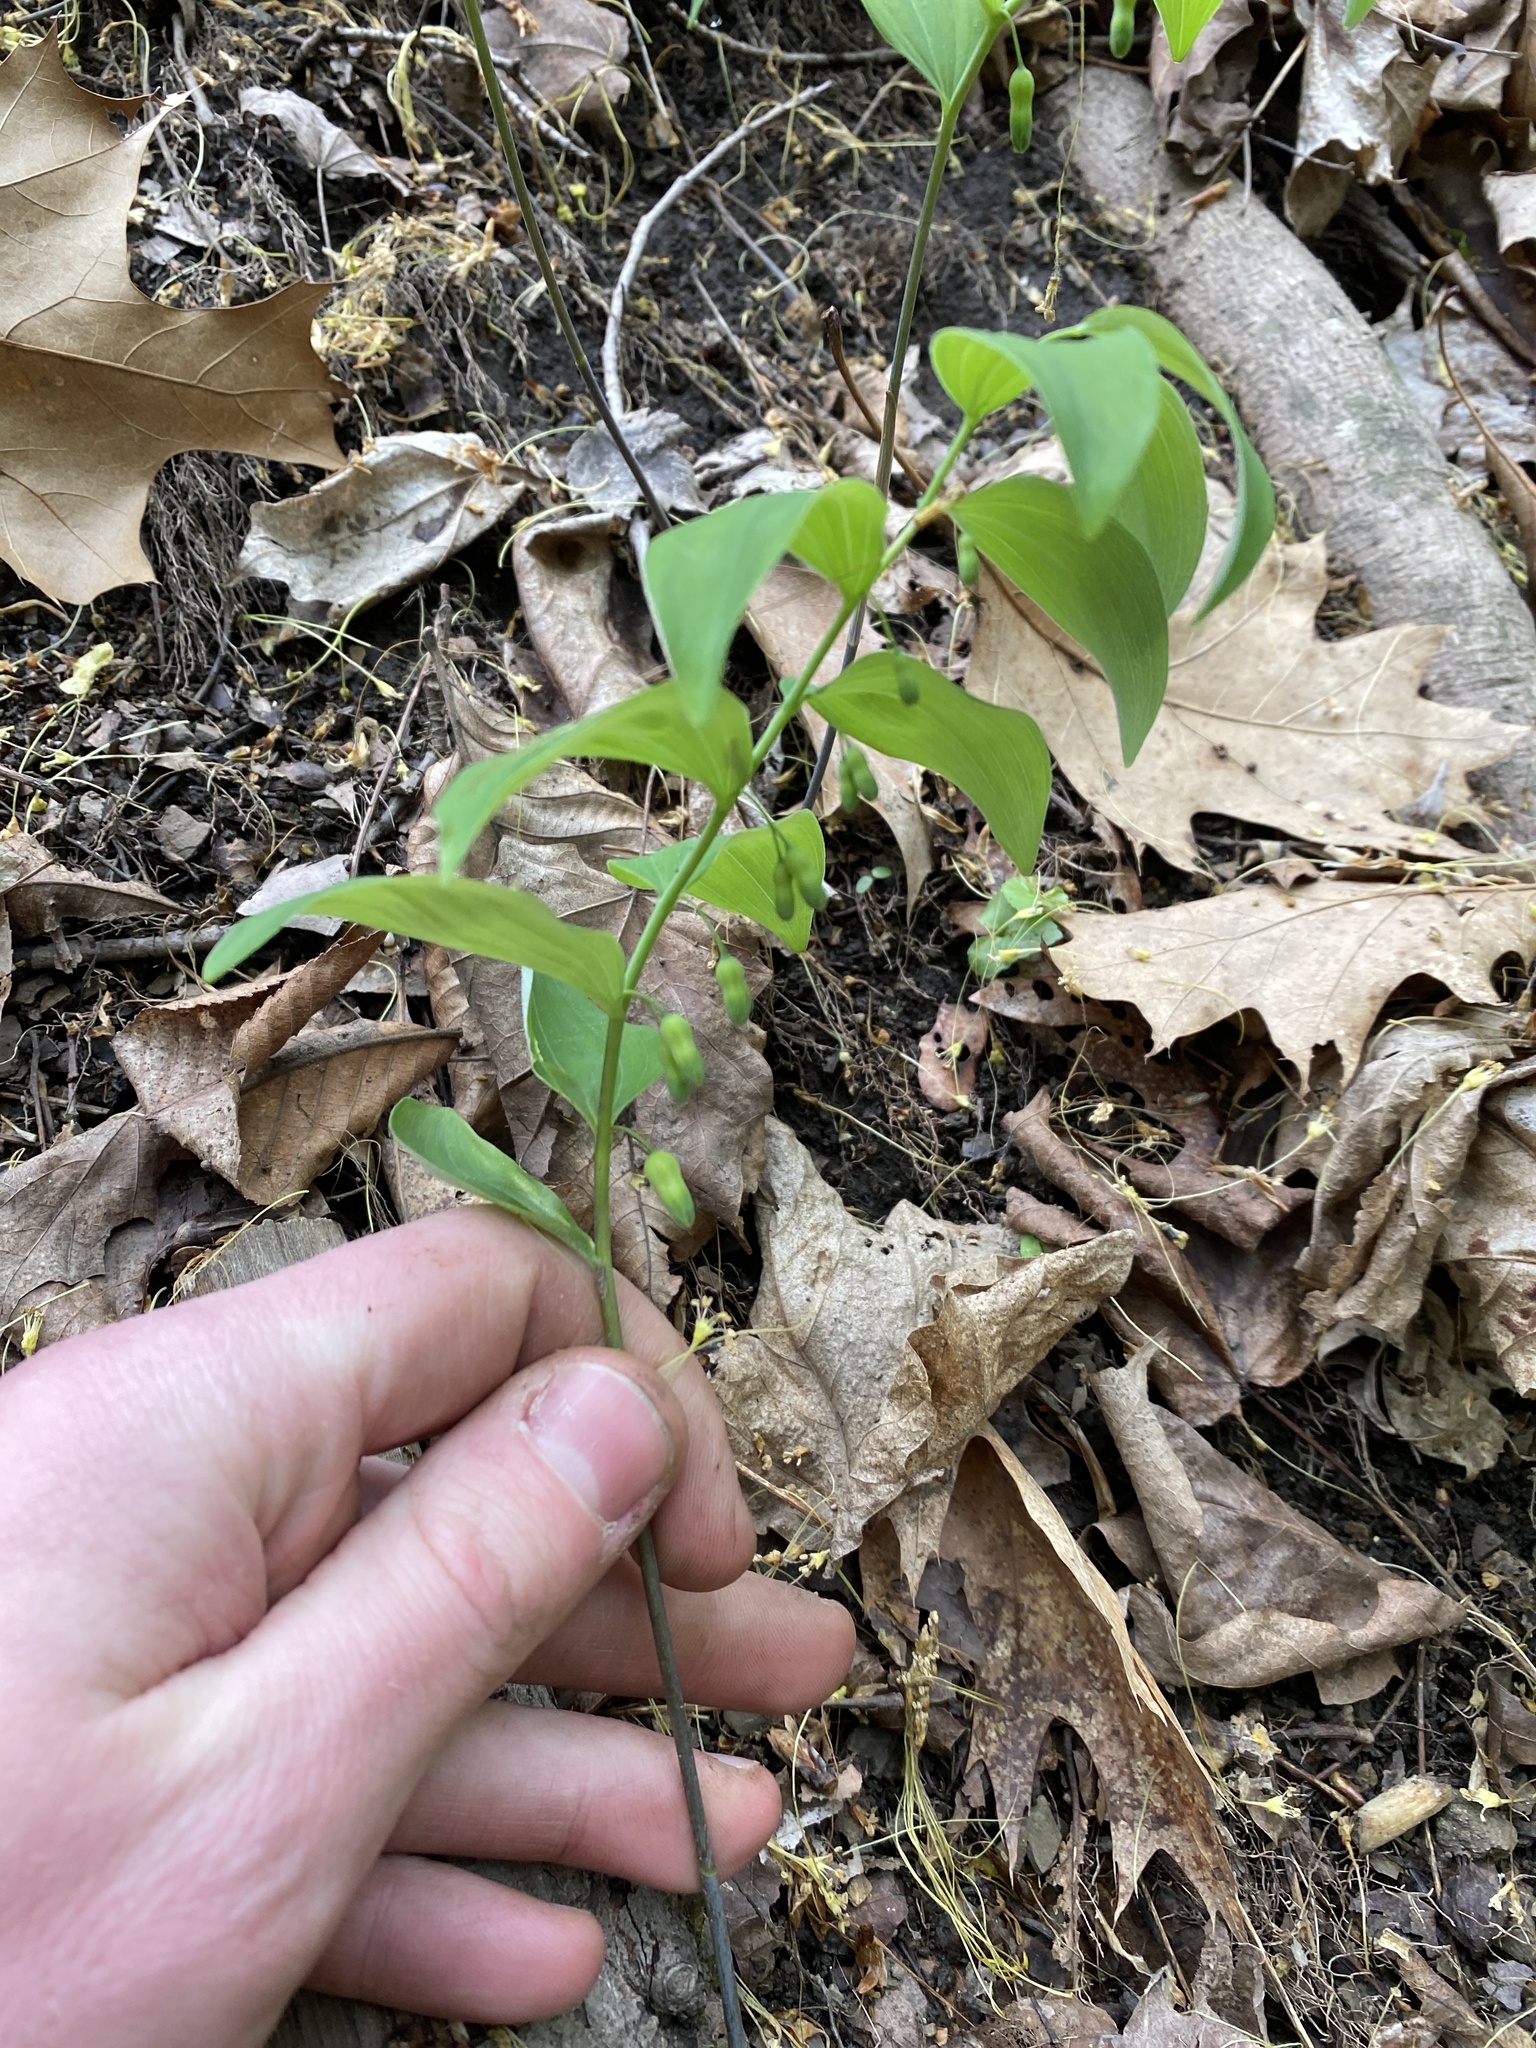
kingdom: Plantae
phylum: Tracheophyta
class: Liliopsida
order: Asparagales
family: Asparagaceae
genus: Polygonatum
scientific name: Polygonatum pubescens
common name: Downy solomon's seal
